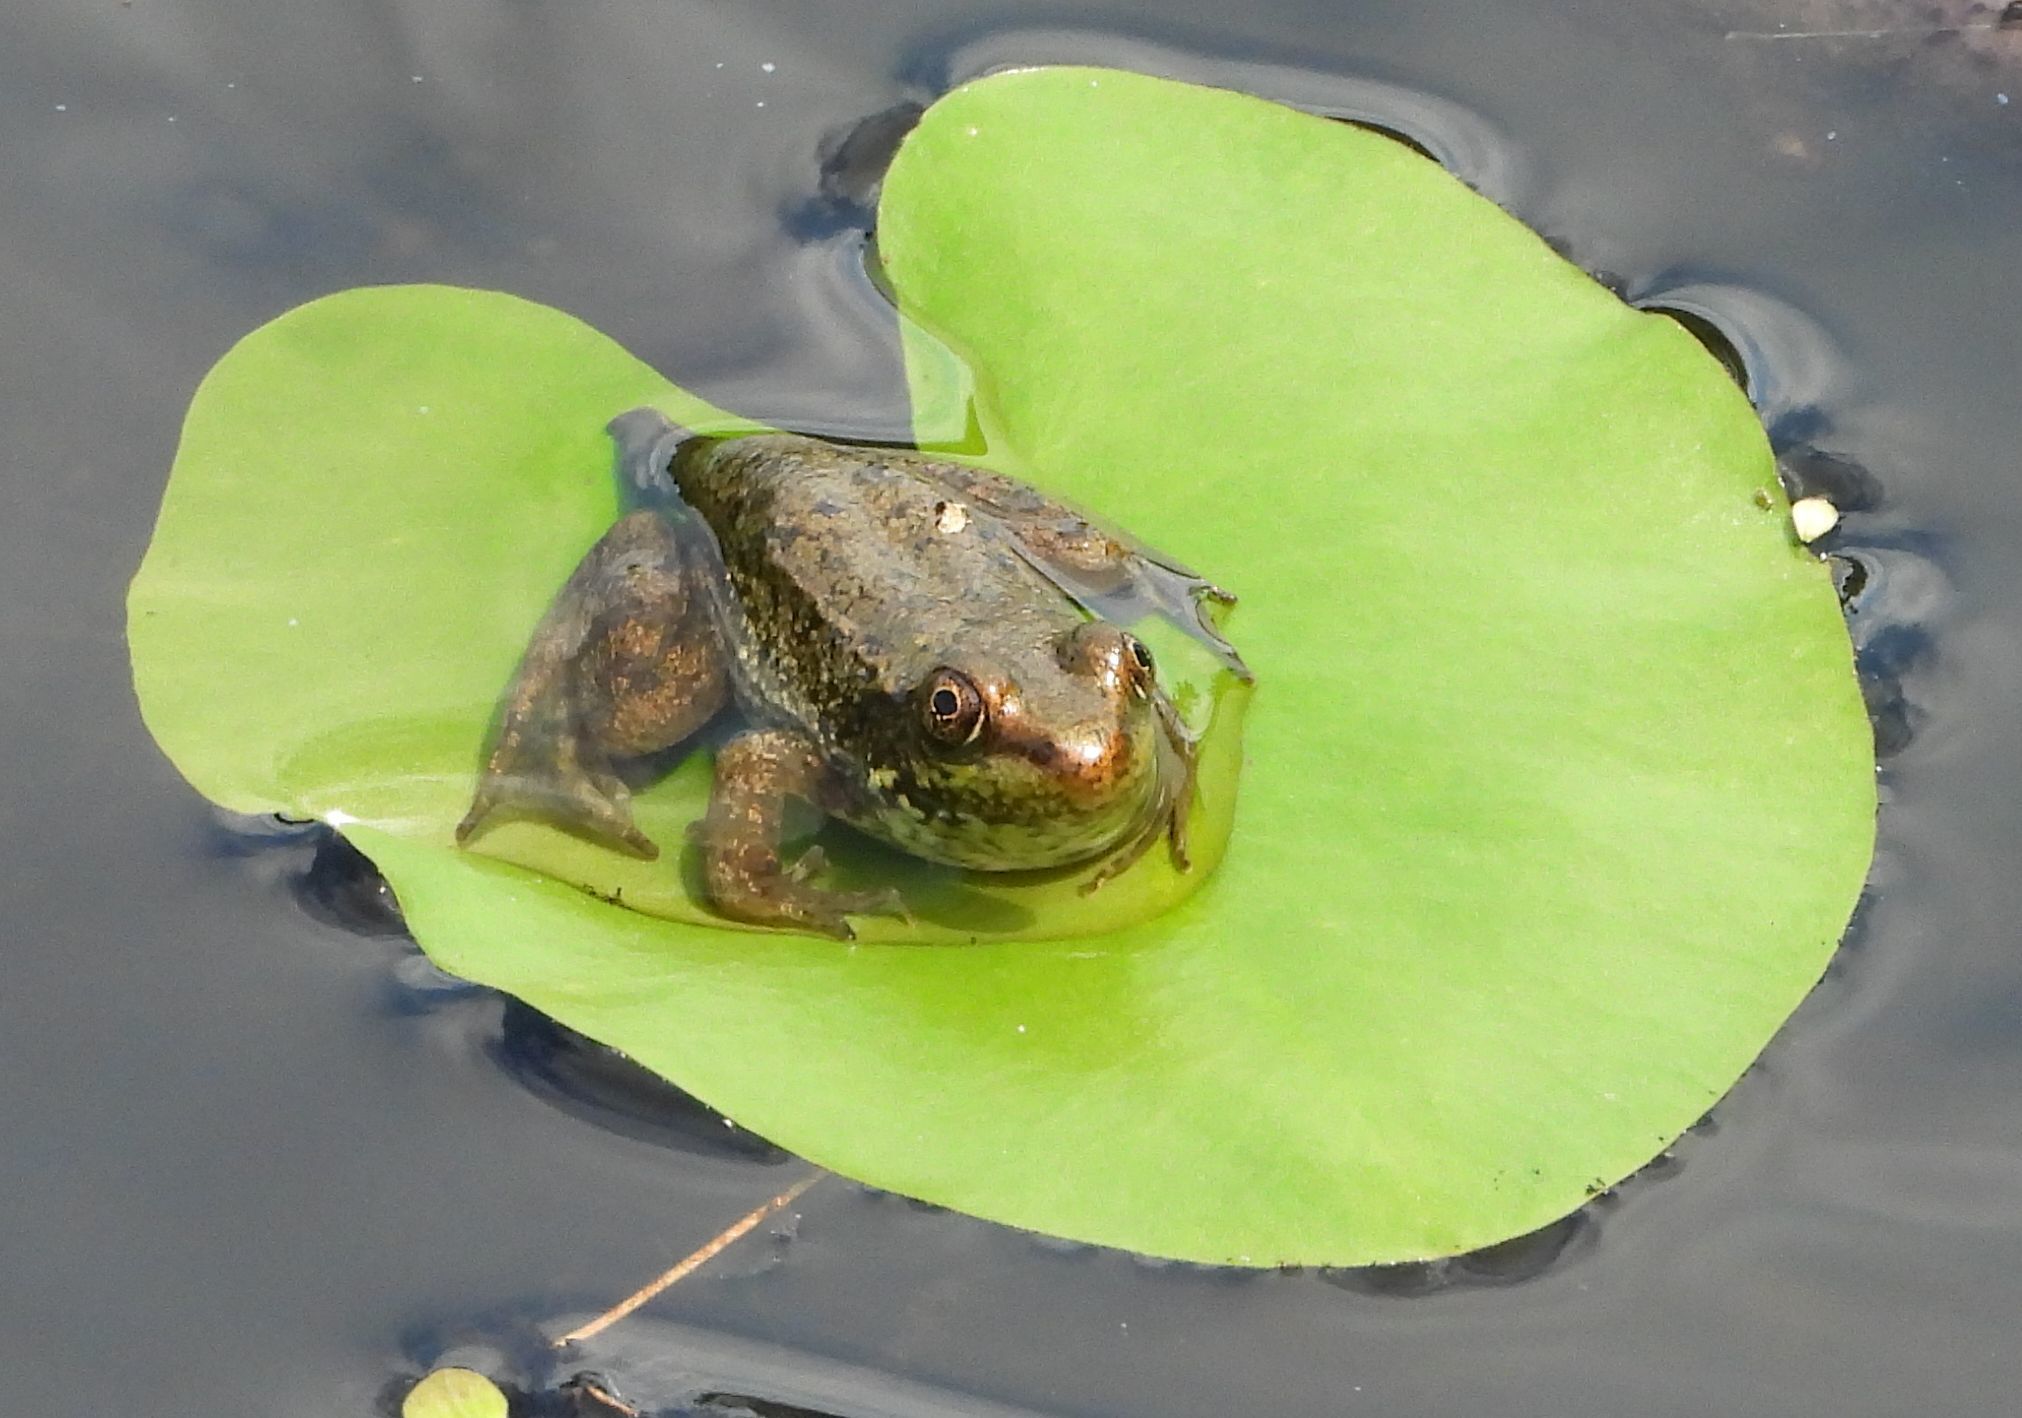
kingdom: Animalia
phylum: Chordata
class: Amphibia
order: Anura
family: Ranidae
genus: Lithobates
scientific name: Lithobates clamitans
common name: Green frog
